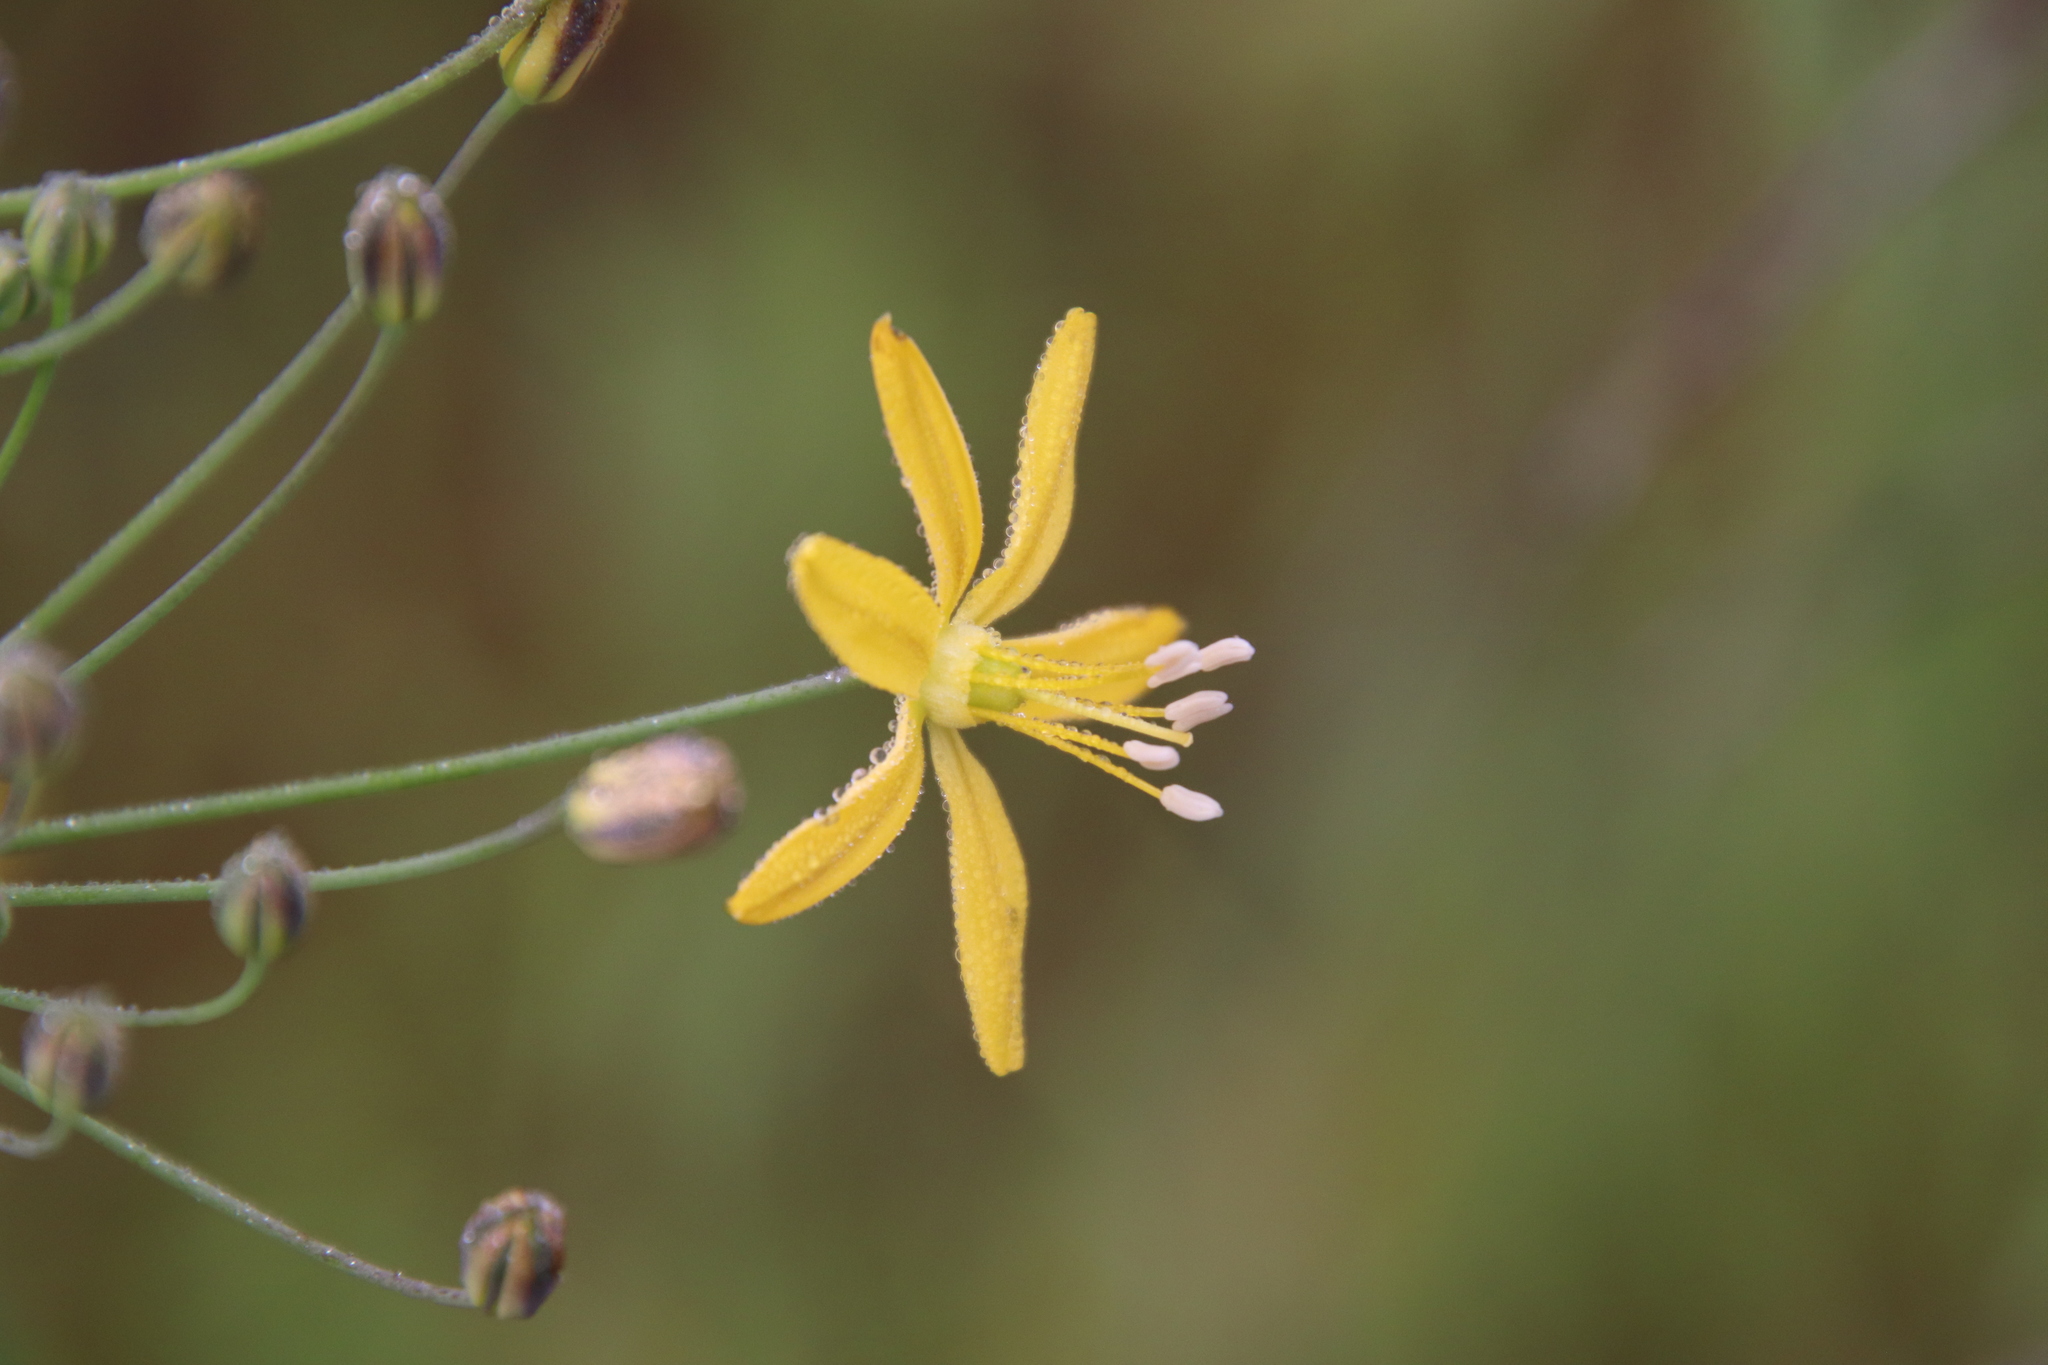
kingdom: Plantae
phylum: Tracheophyta
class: Liliopsida
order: Asparagales
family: Asparagaceae
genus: Bloomeria
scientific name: Bloomeria crocea
